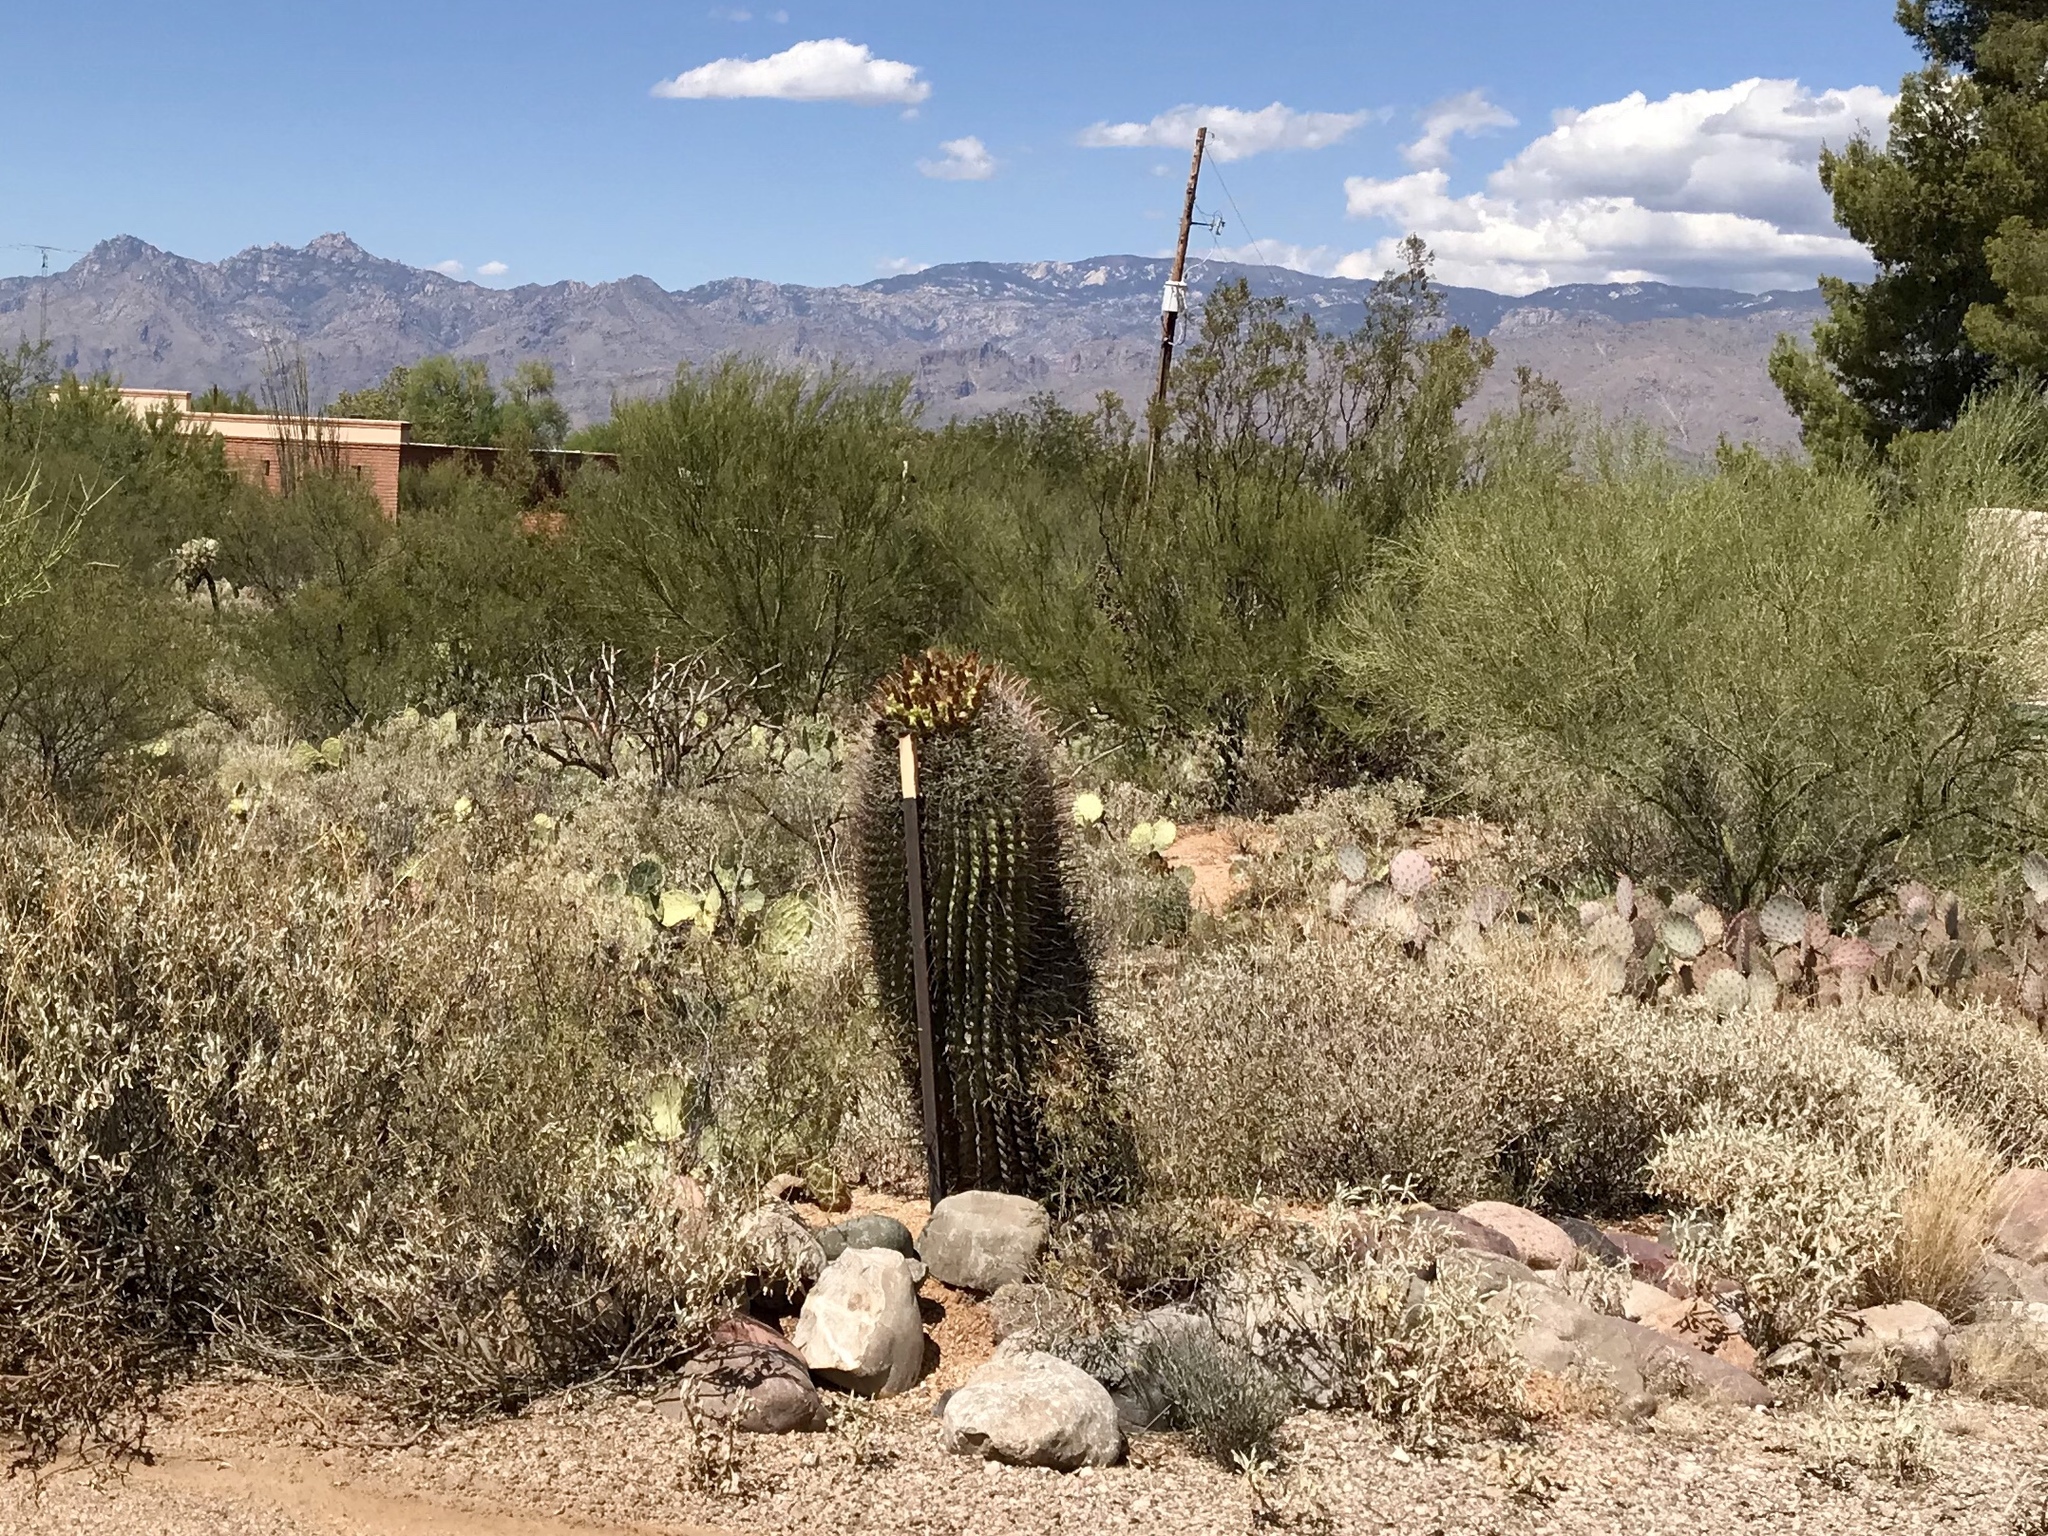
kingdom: Plantae
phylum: Tracheophyta
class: Magnoliopsida
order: Caryophyllales
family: Cactaceae
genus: Ferocactus
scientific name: Ferocactus wislizeni
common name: Candy barrel cactus
